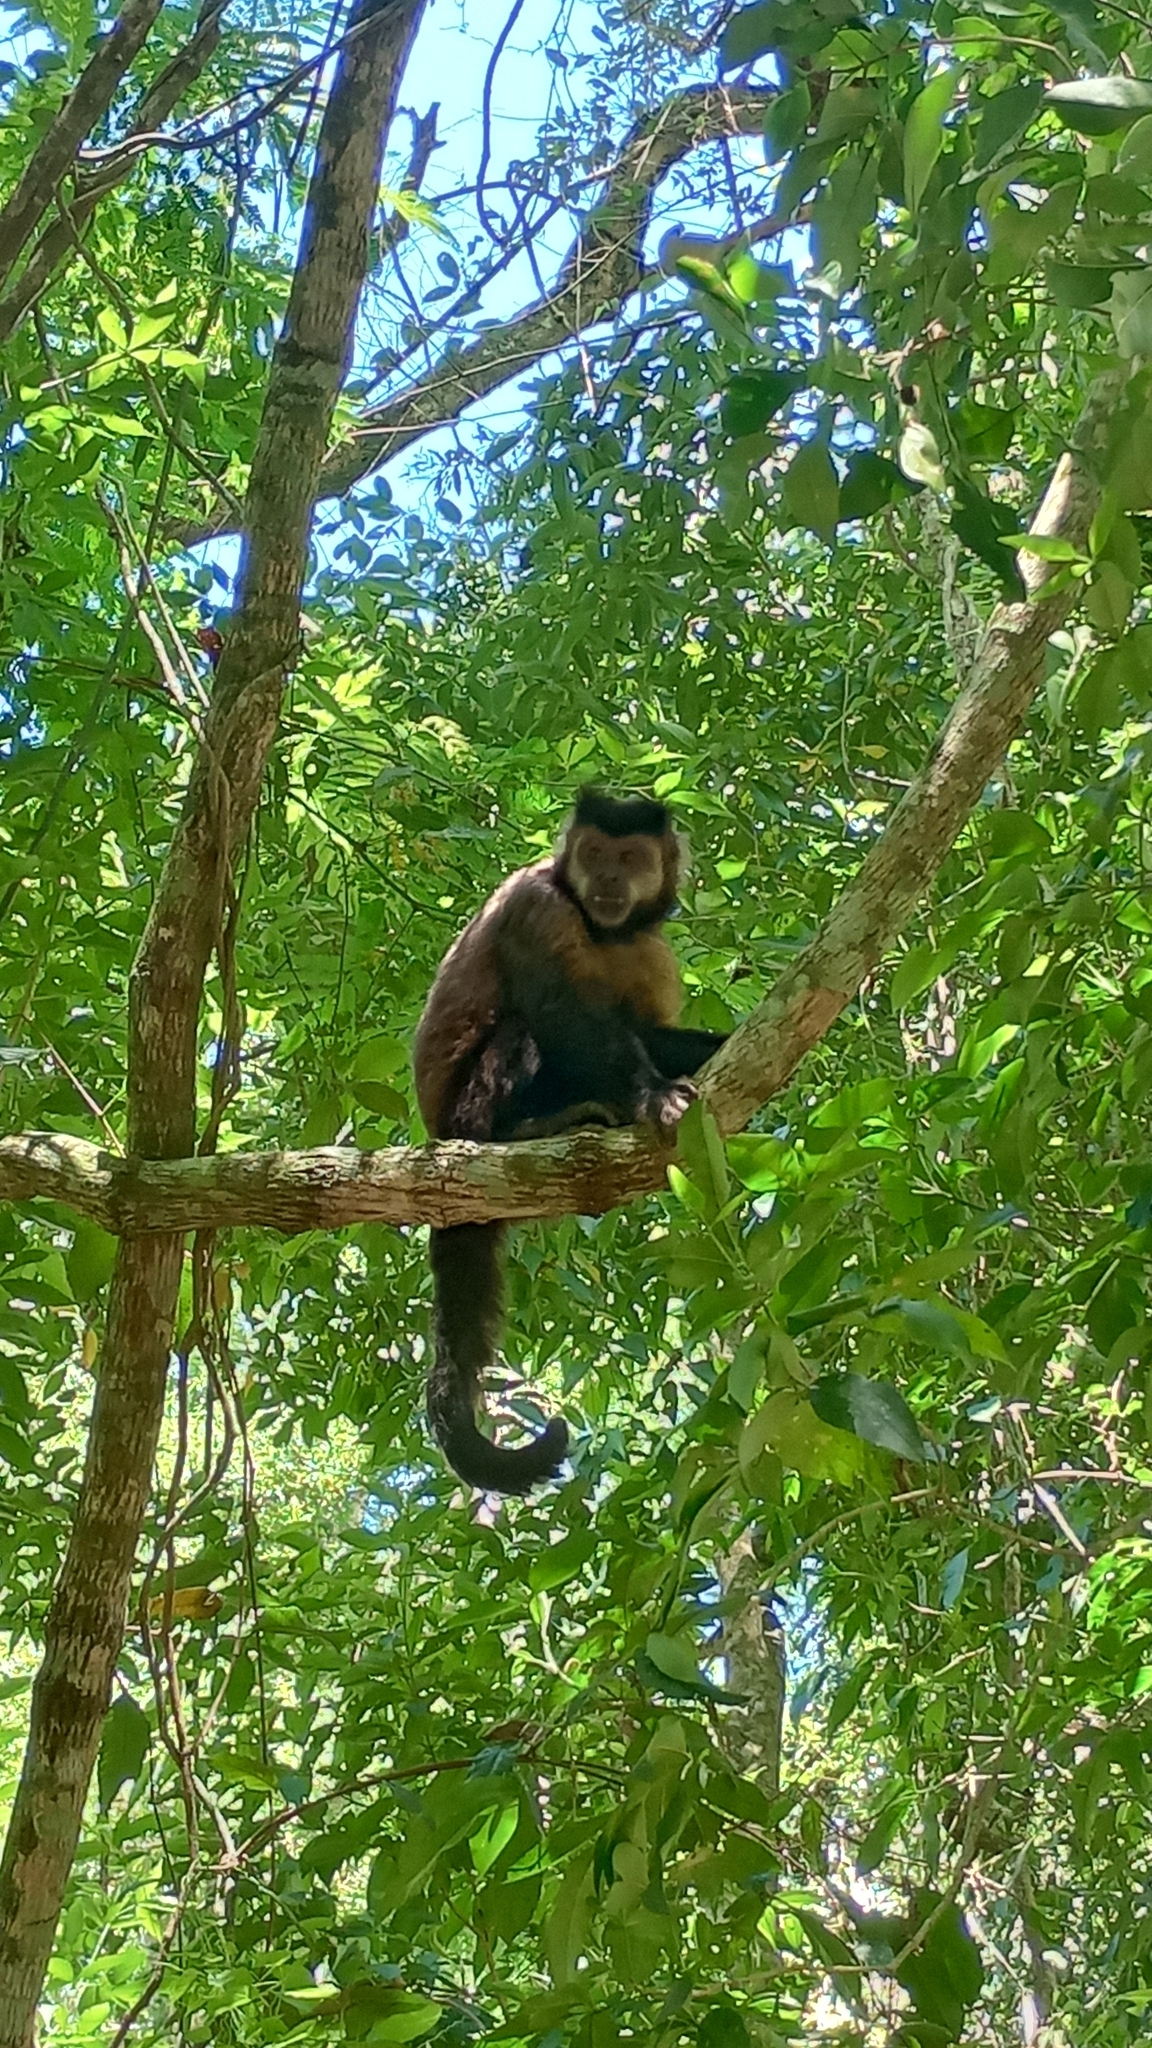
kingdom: Animalia
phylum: Chordata
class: Mammalia
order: Primates
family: Cebidae
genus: Sapajus
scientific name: Sapajus nigritus
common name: Black capuchin
